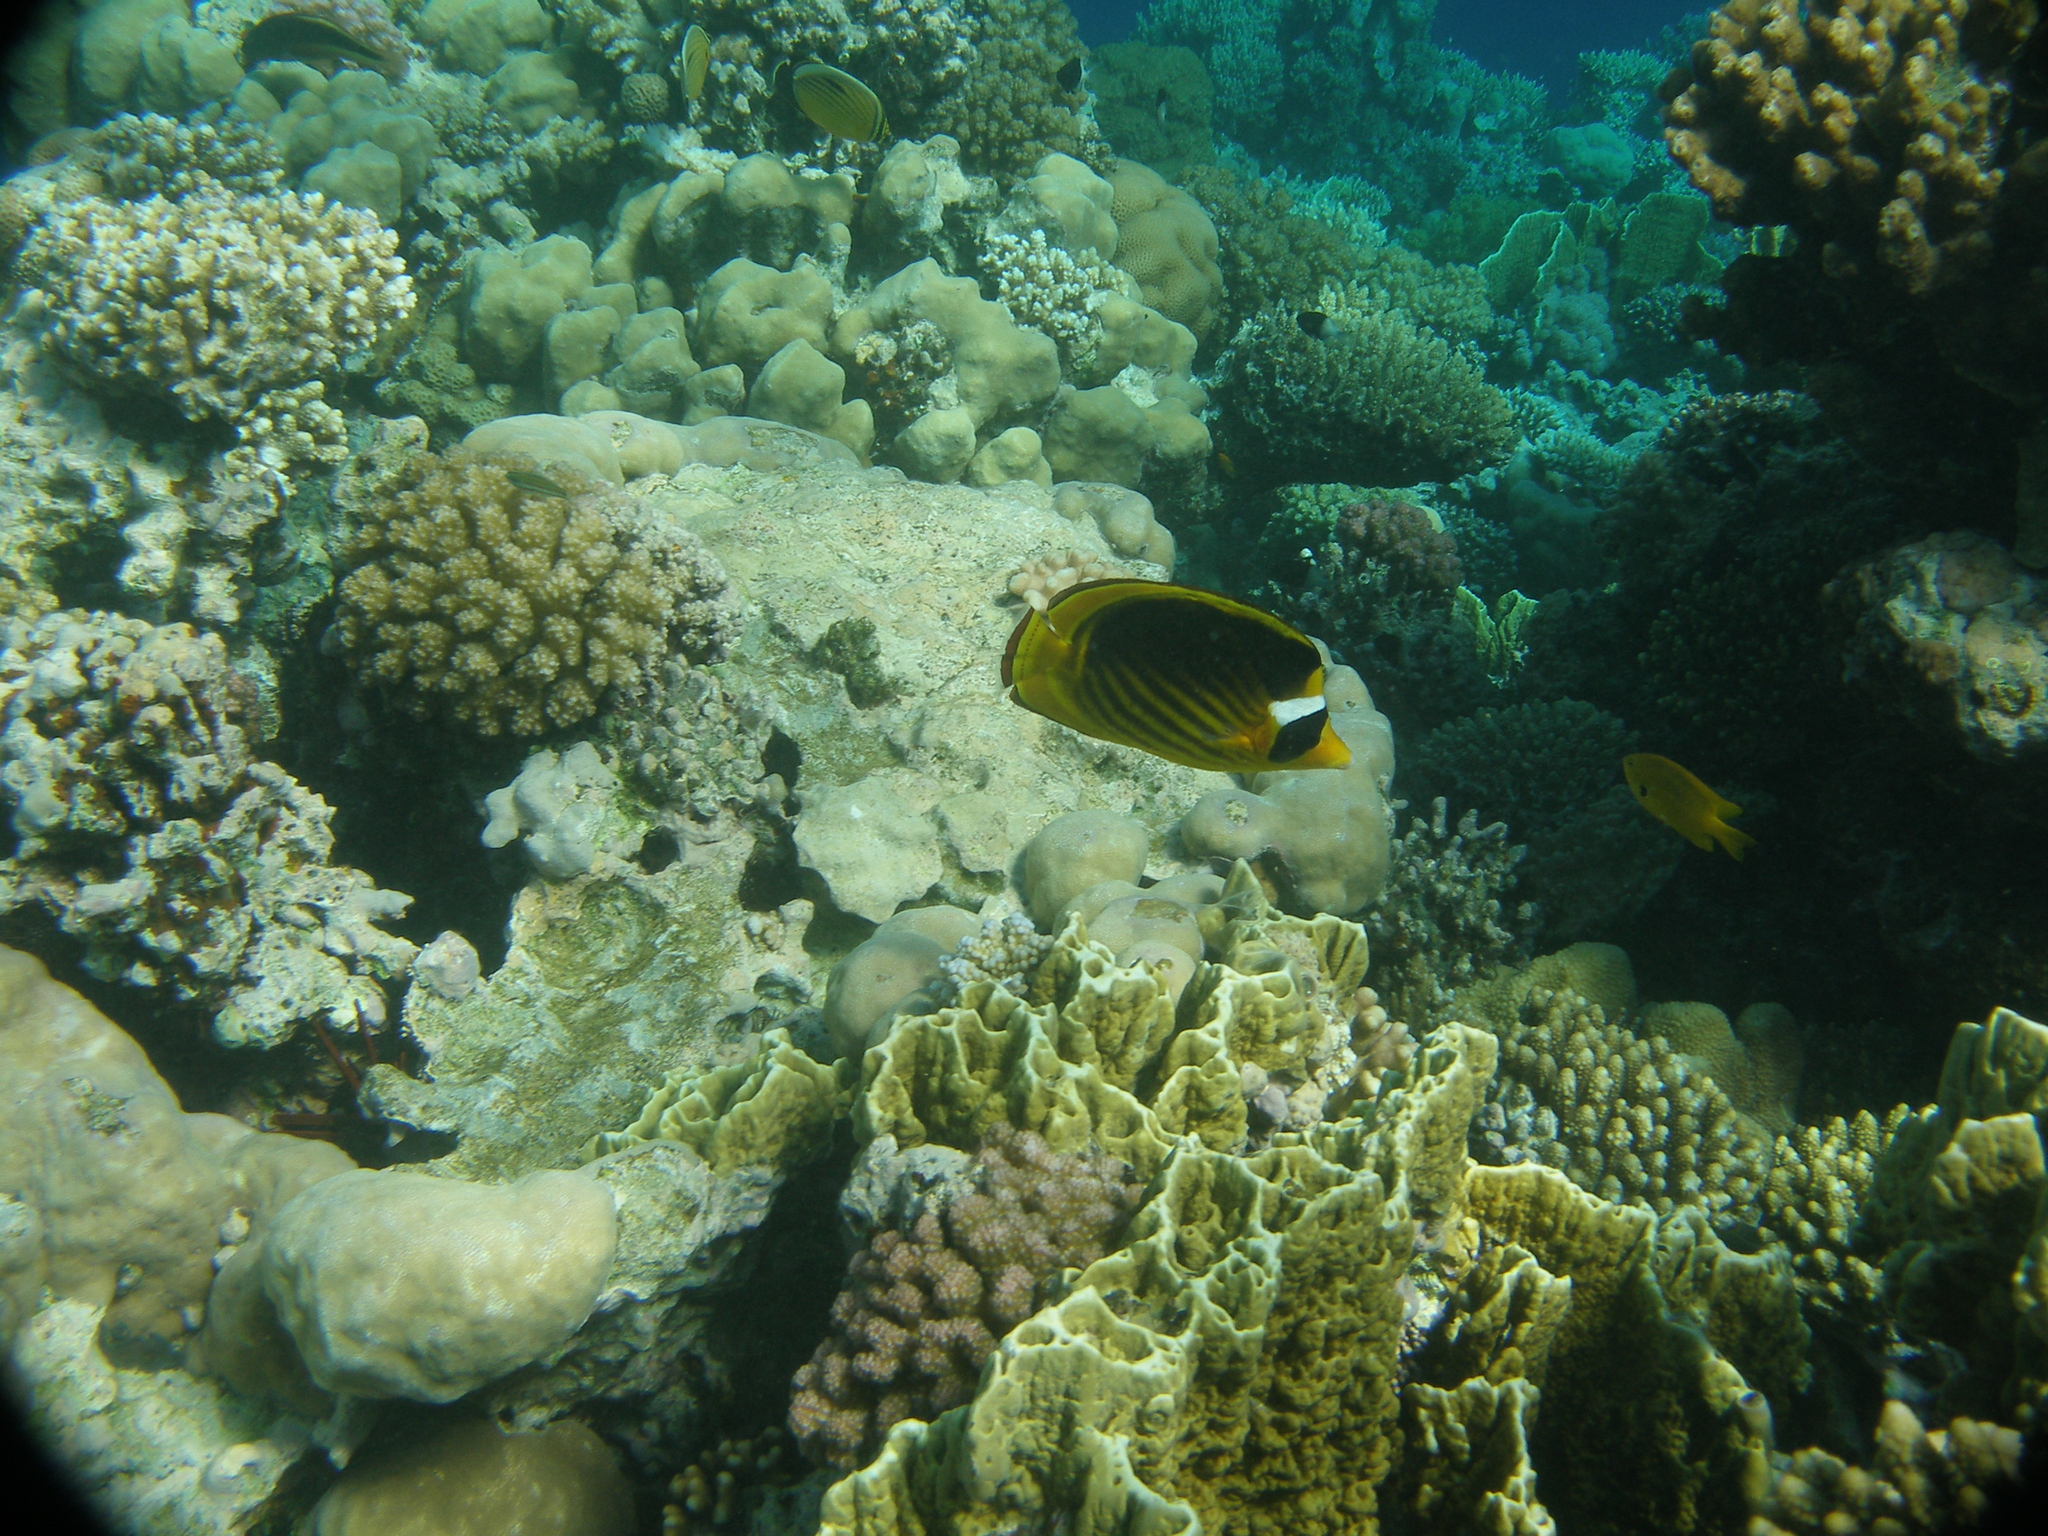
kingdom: Animalia
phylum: Chordata
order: Perciformes
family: Chaetodontidae
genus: Chaetodon
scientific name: Chaetodon fasciatus
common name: Diagonal butterflyfish
